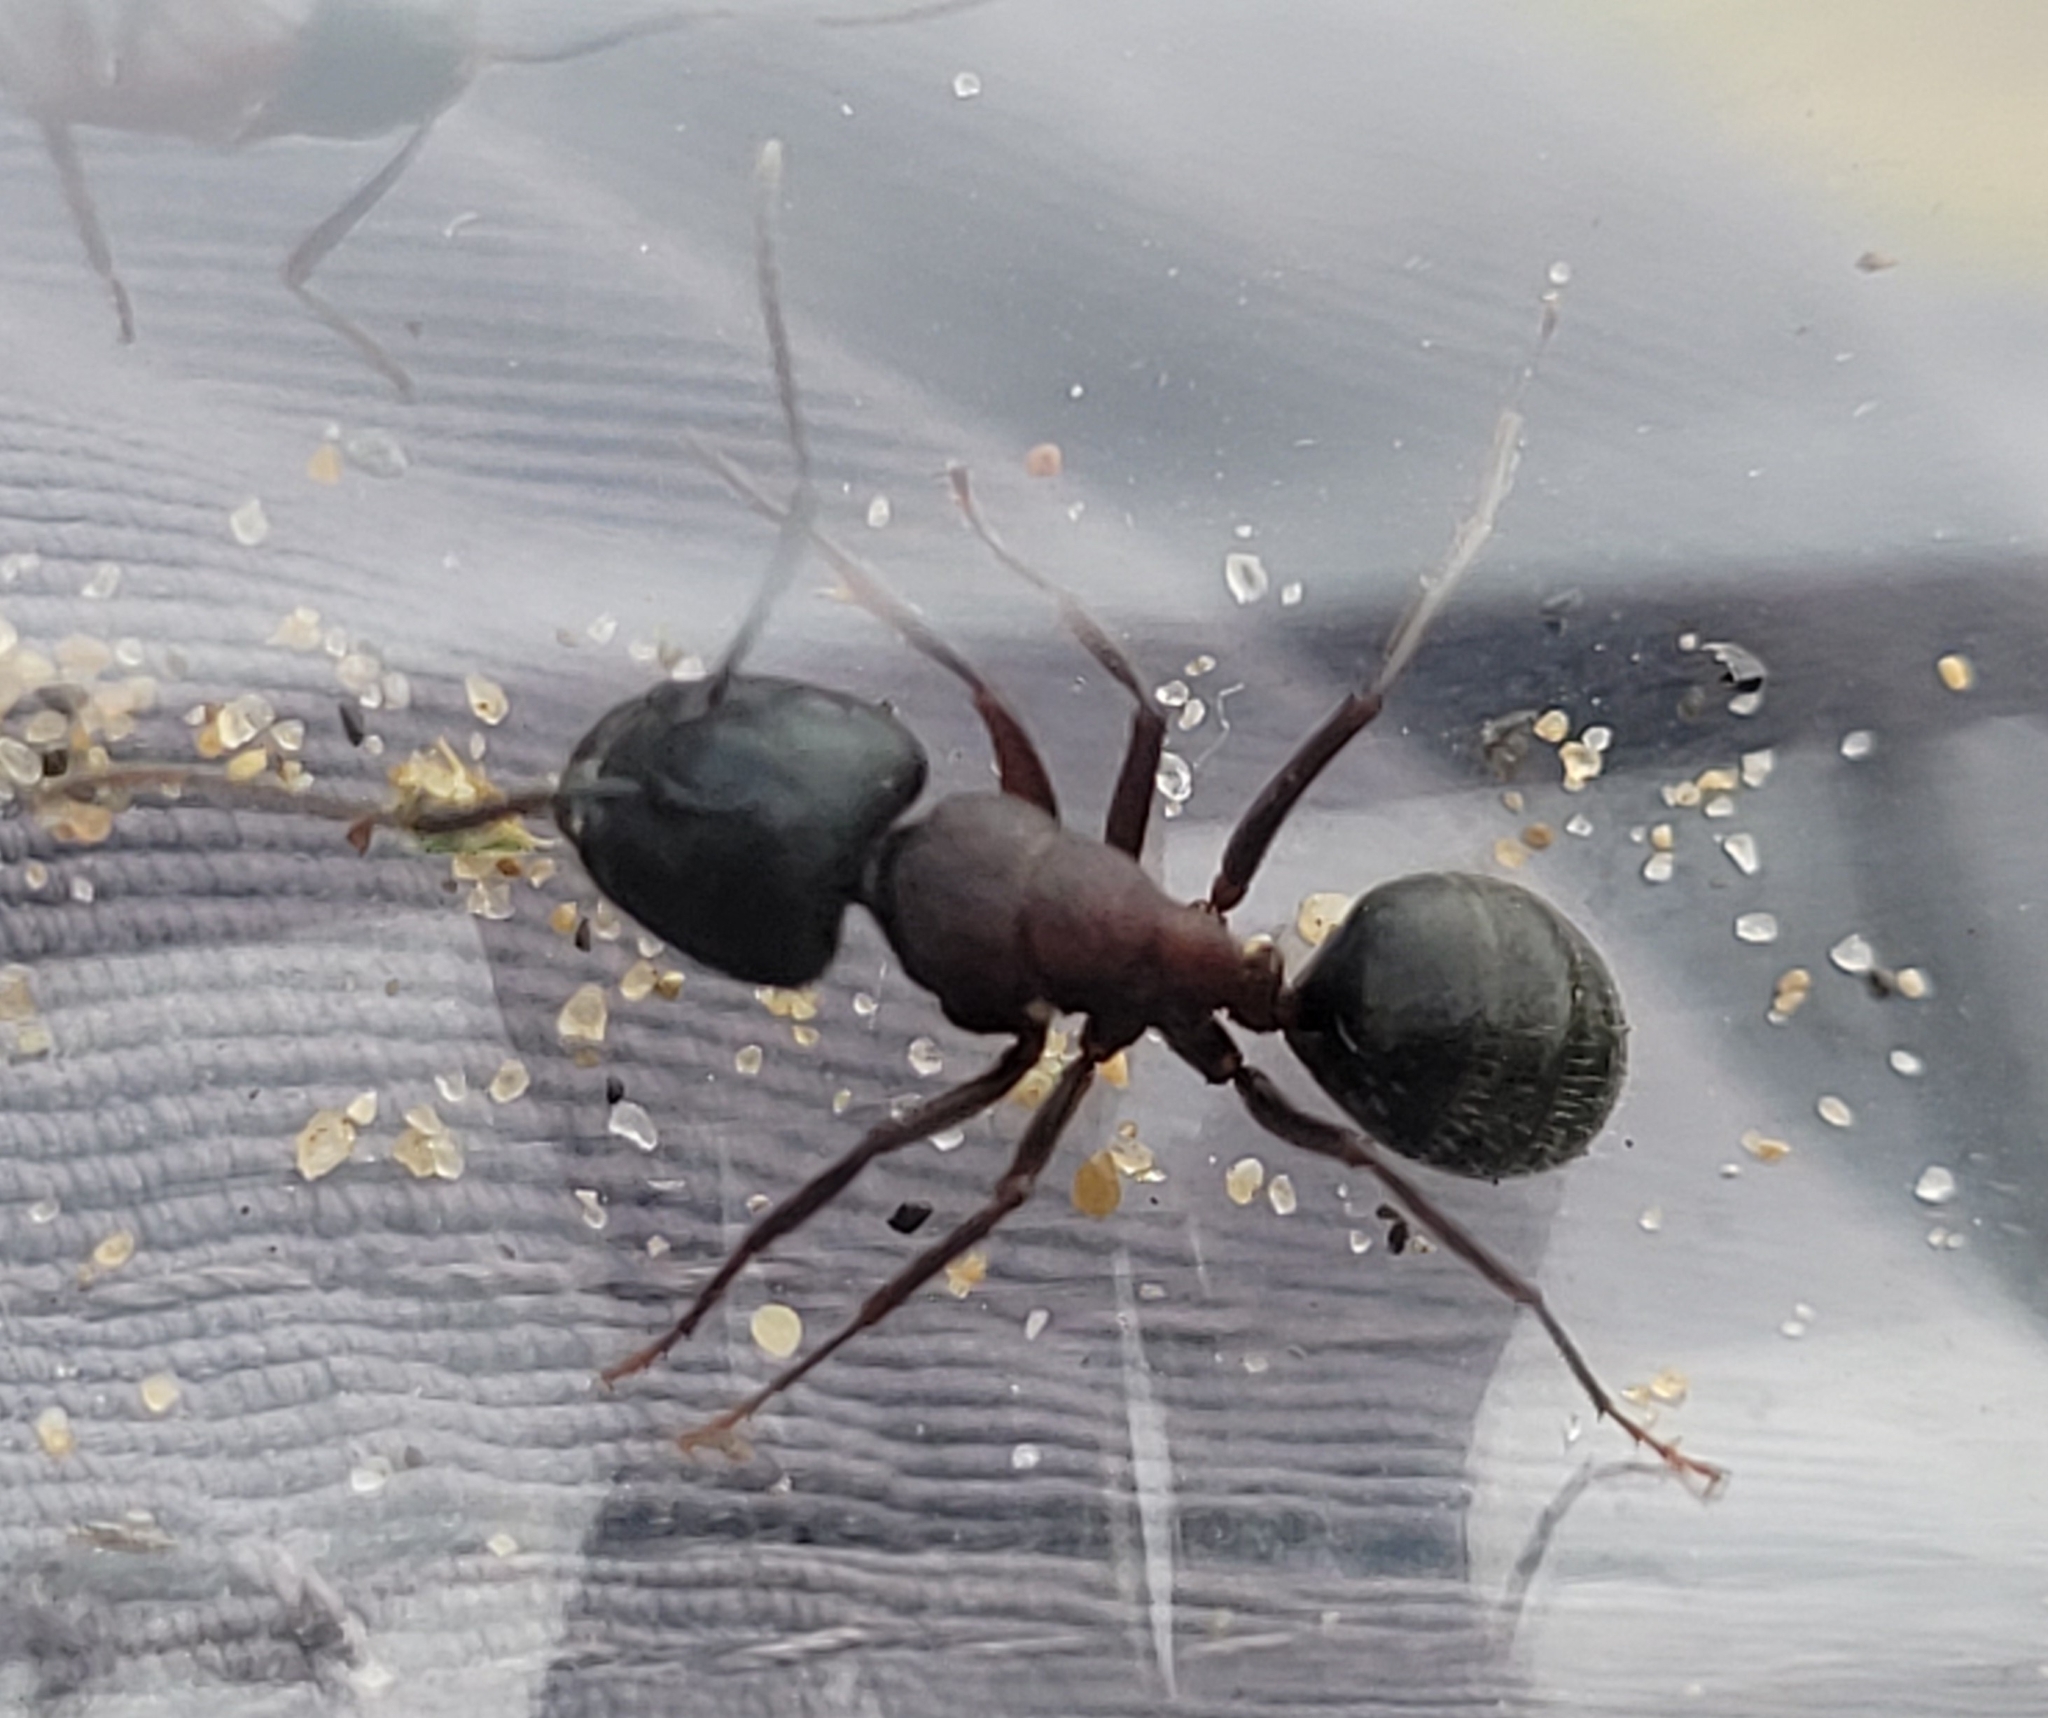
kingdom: Animalia
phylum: Arthropoda
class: Insecta
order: Hymenoptera
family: Formicidae
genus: Camponotus
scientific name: Camponotus herculeanus
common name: Hercules ant
